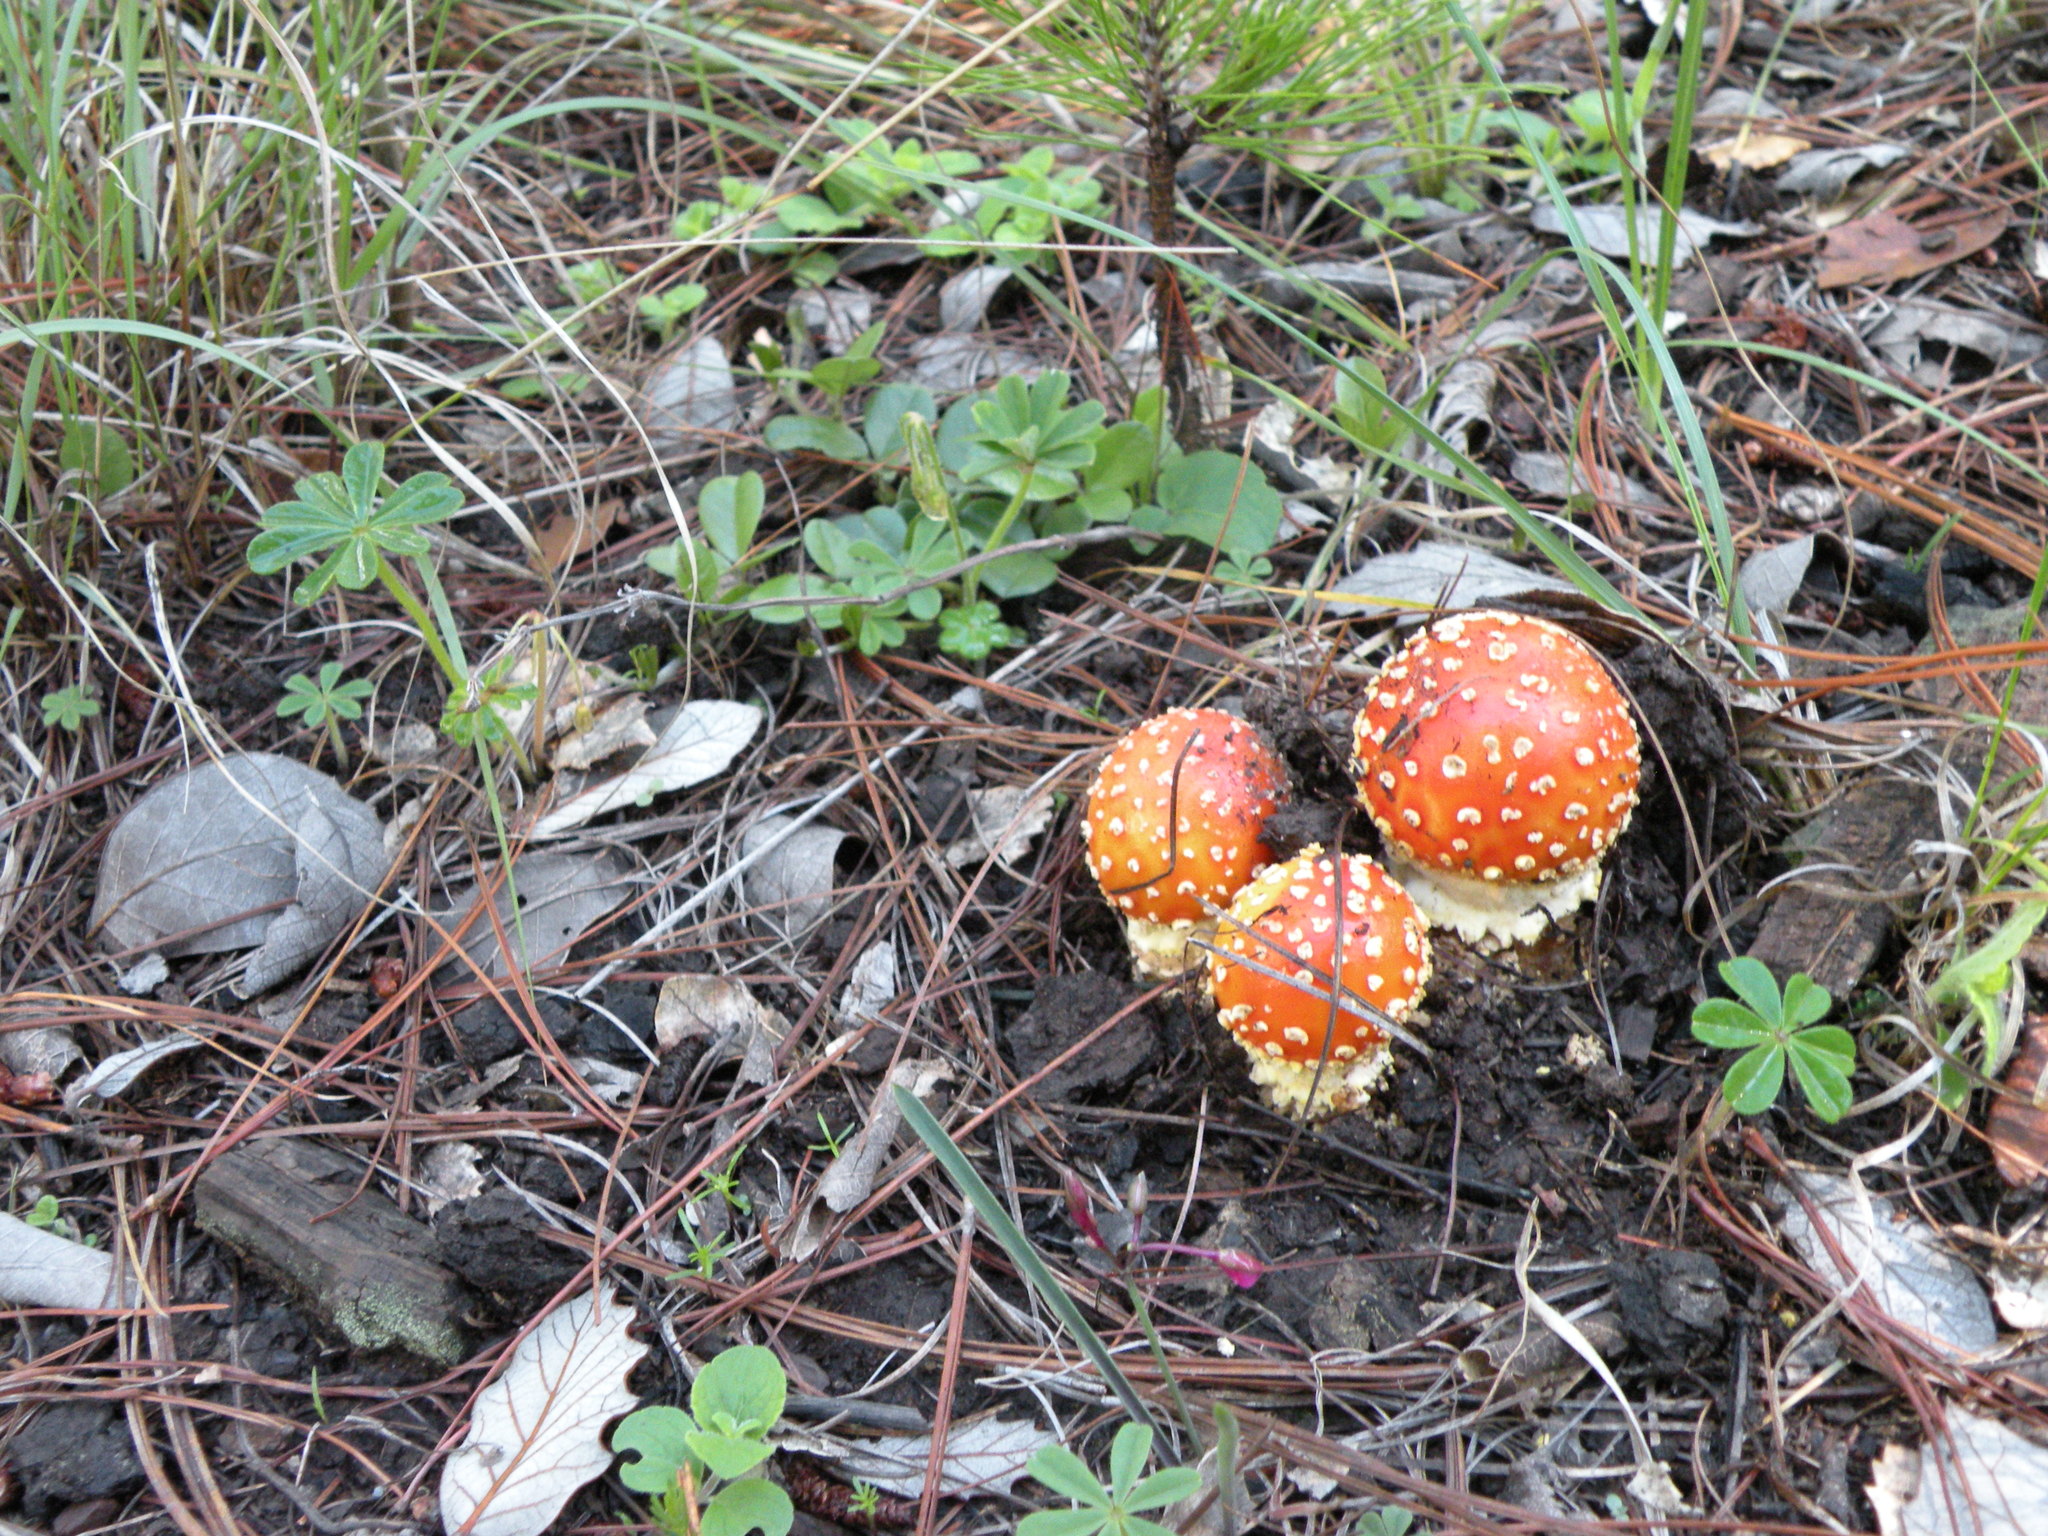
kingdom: Fungi
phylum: Basidiomycota
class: Agaricomycetes
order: Agaricales
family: Amanitaceae
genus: Amanita
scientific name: Amanita muscaria
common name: Fly agaric
